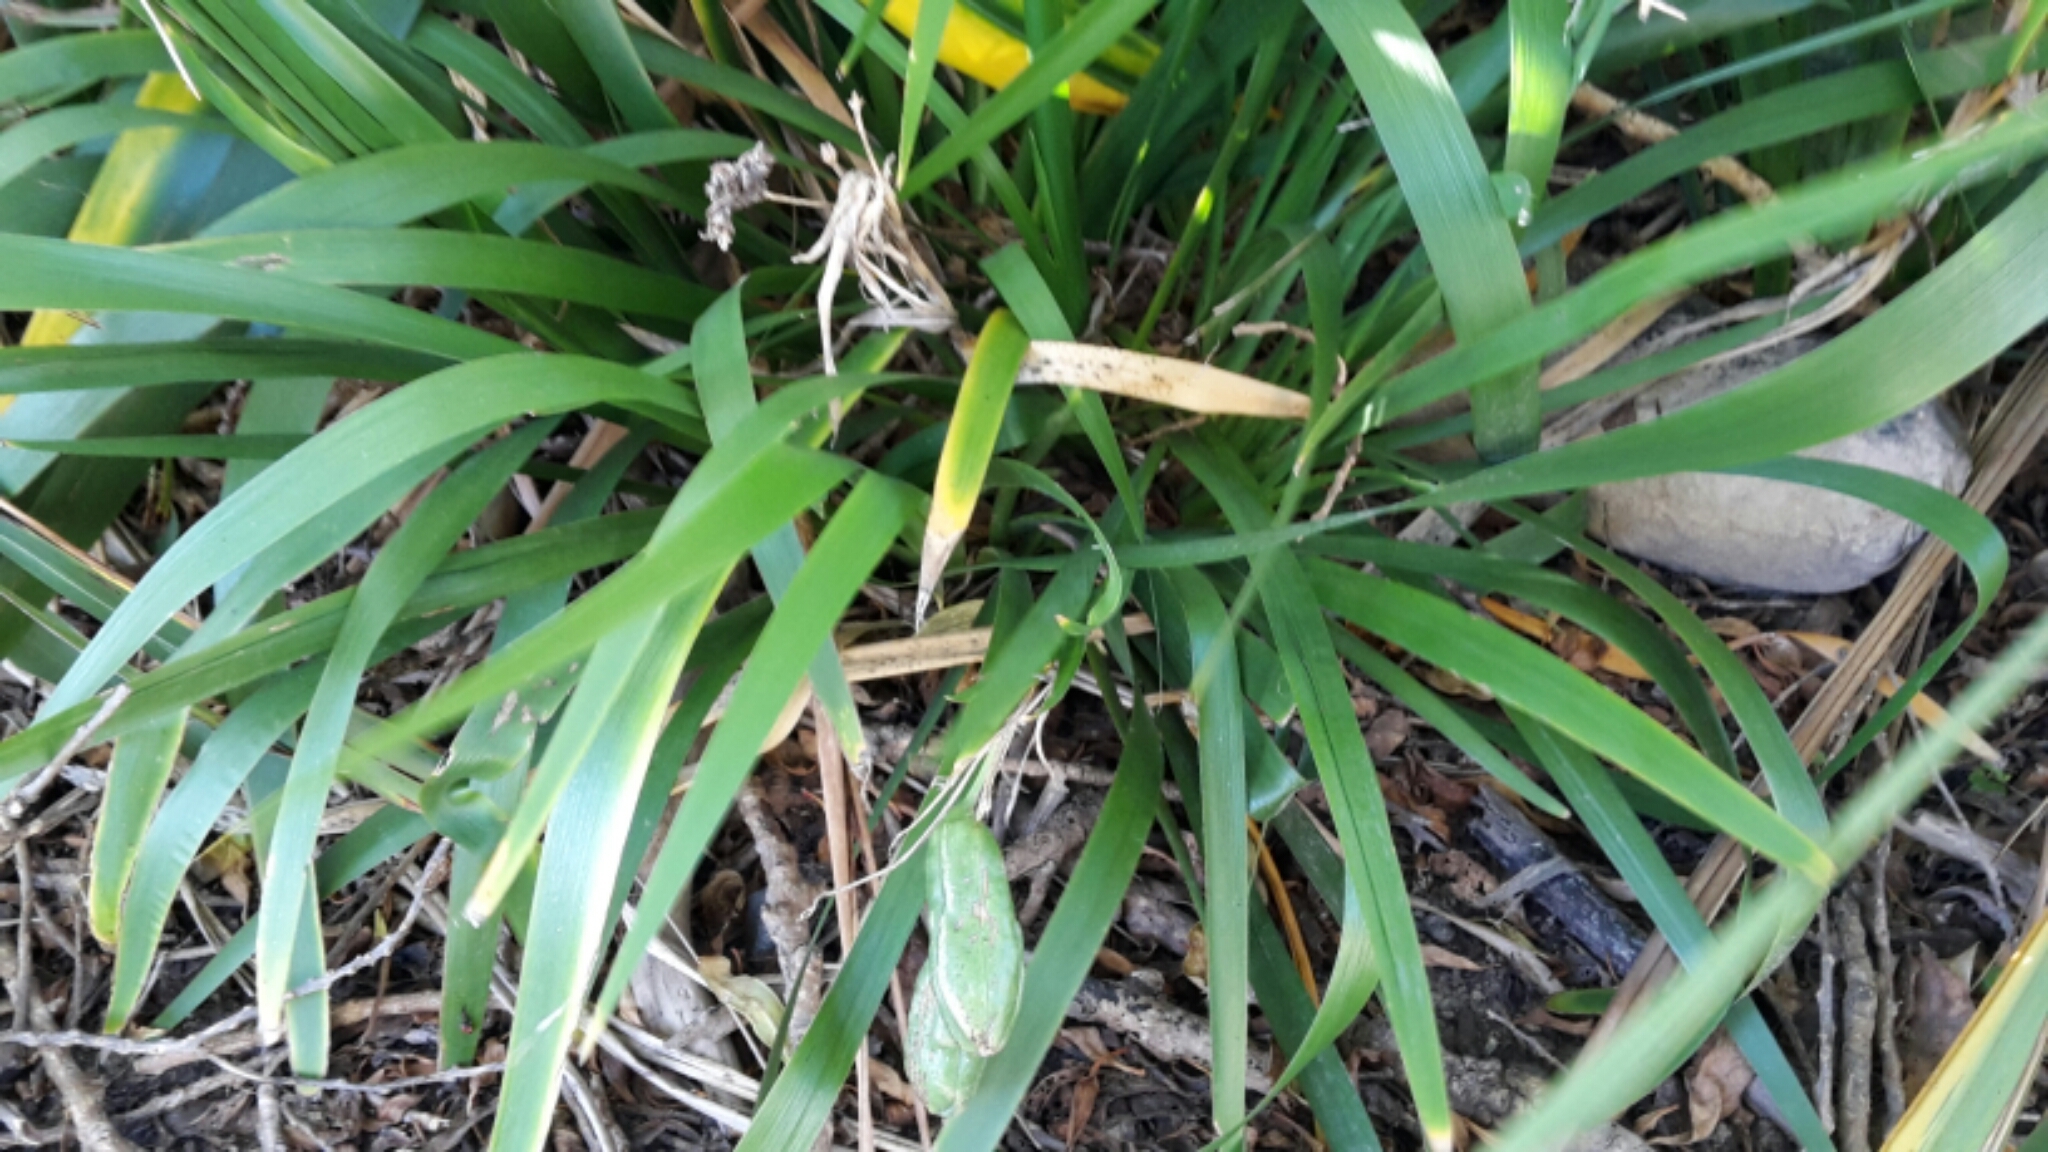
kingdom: Plantae
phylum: Tracheophyta
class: Liliopsida
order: Asparagales
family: Iridaceae
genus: Iris
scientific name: Iris foetidissima
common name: Stinking iris
